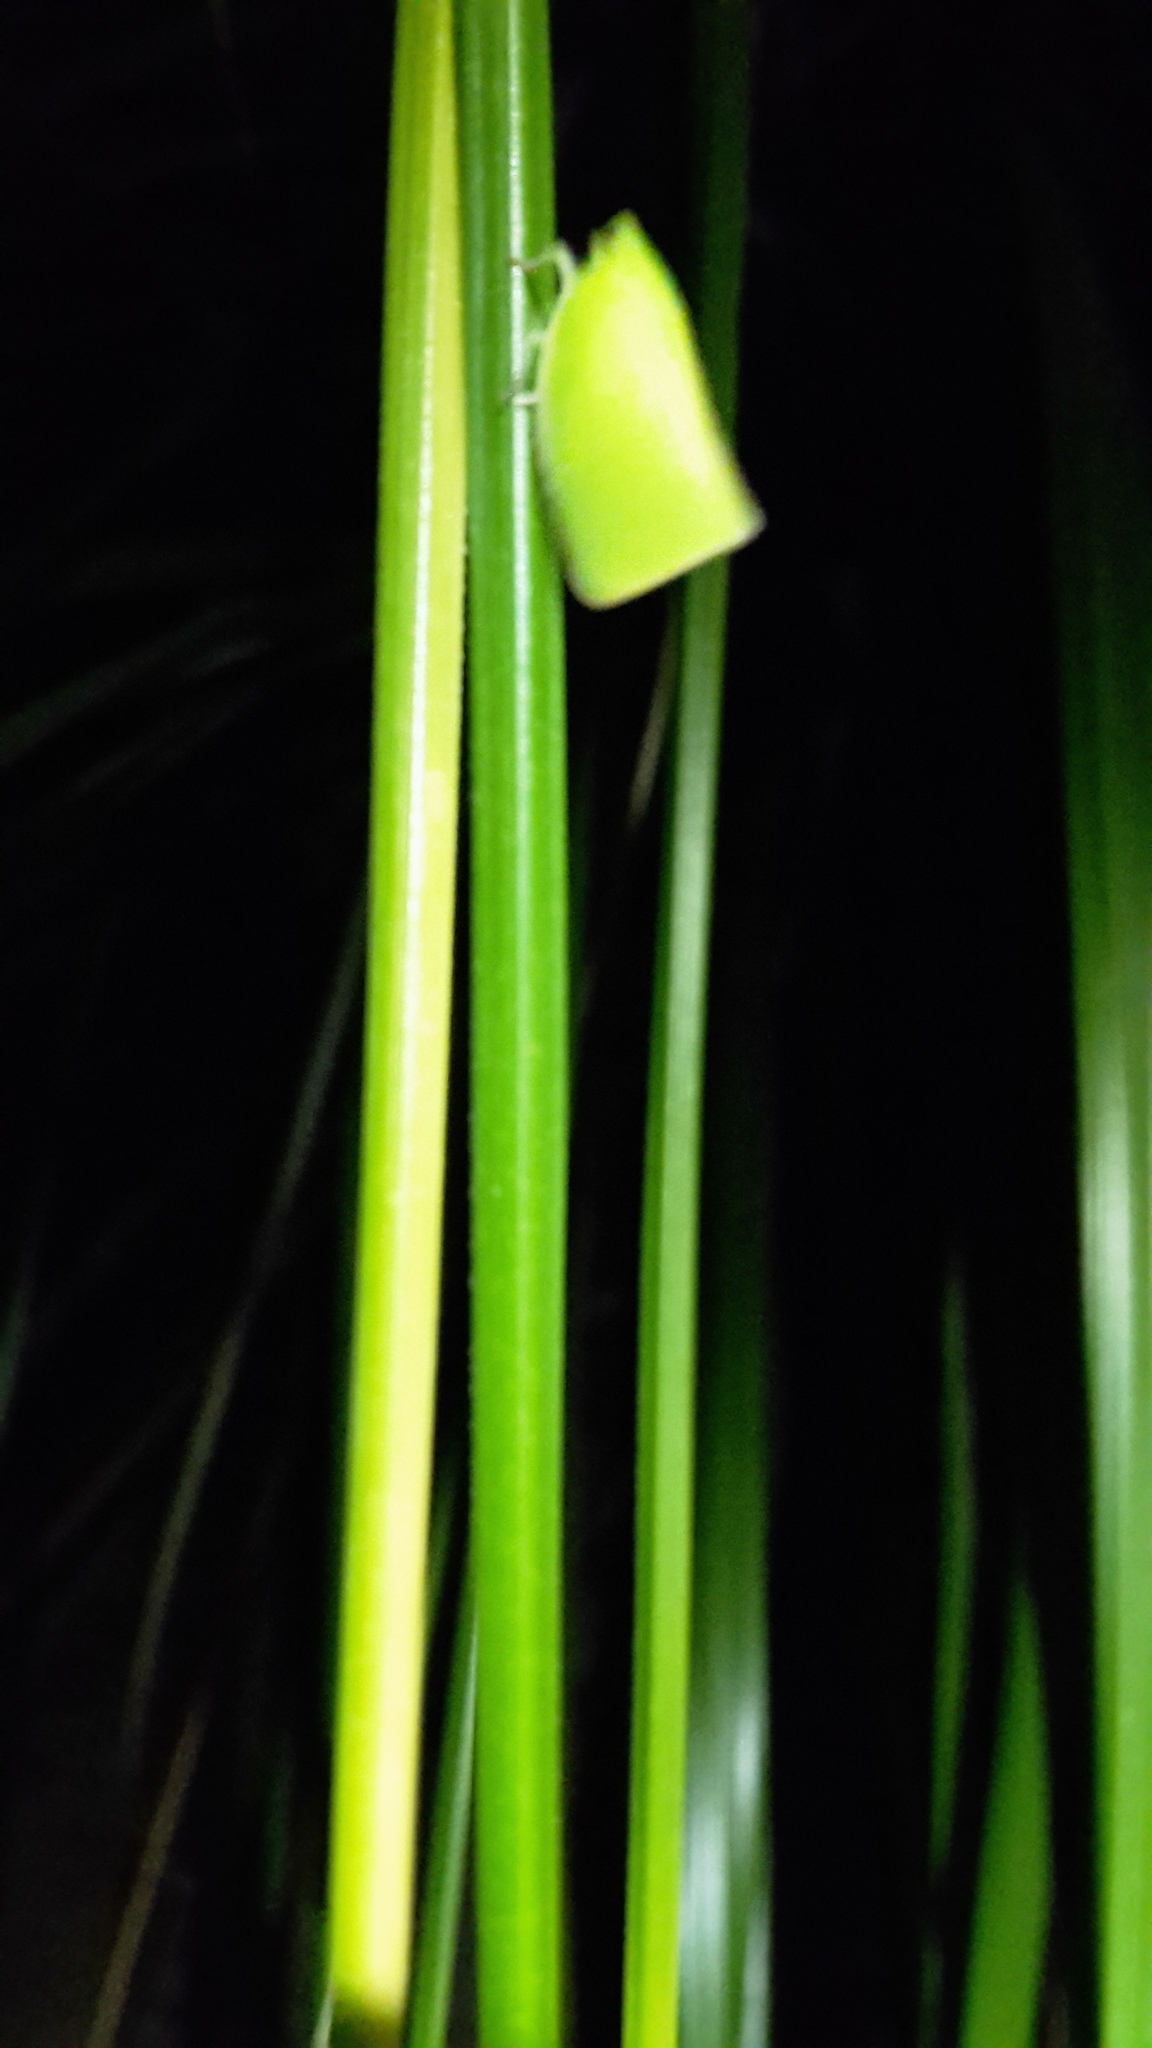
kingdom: Animalia
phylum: Arthropoda
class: Insecta
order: Hemiptera
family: Flatidae
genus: Siphanta
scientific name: Siphanta acuta
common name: Torpedo bug
